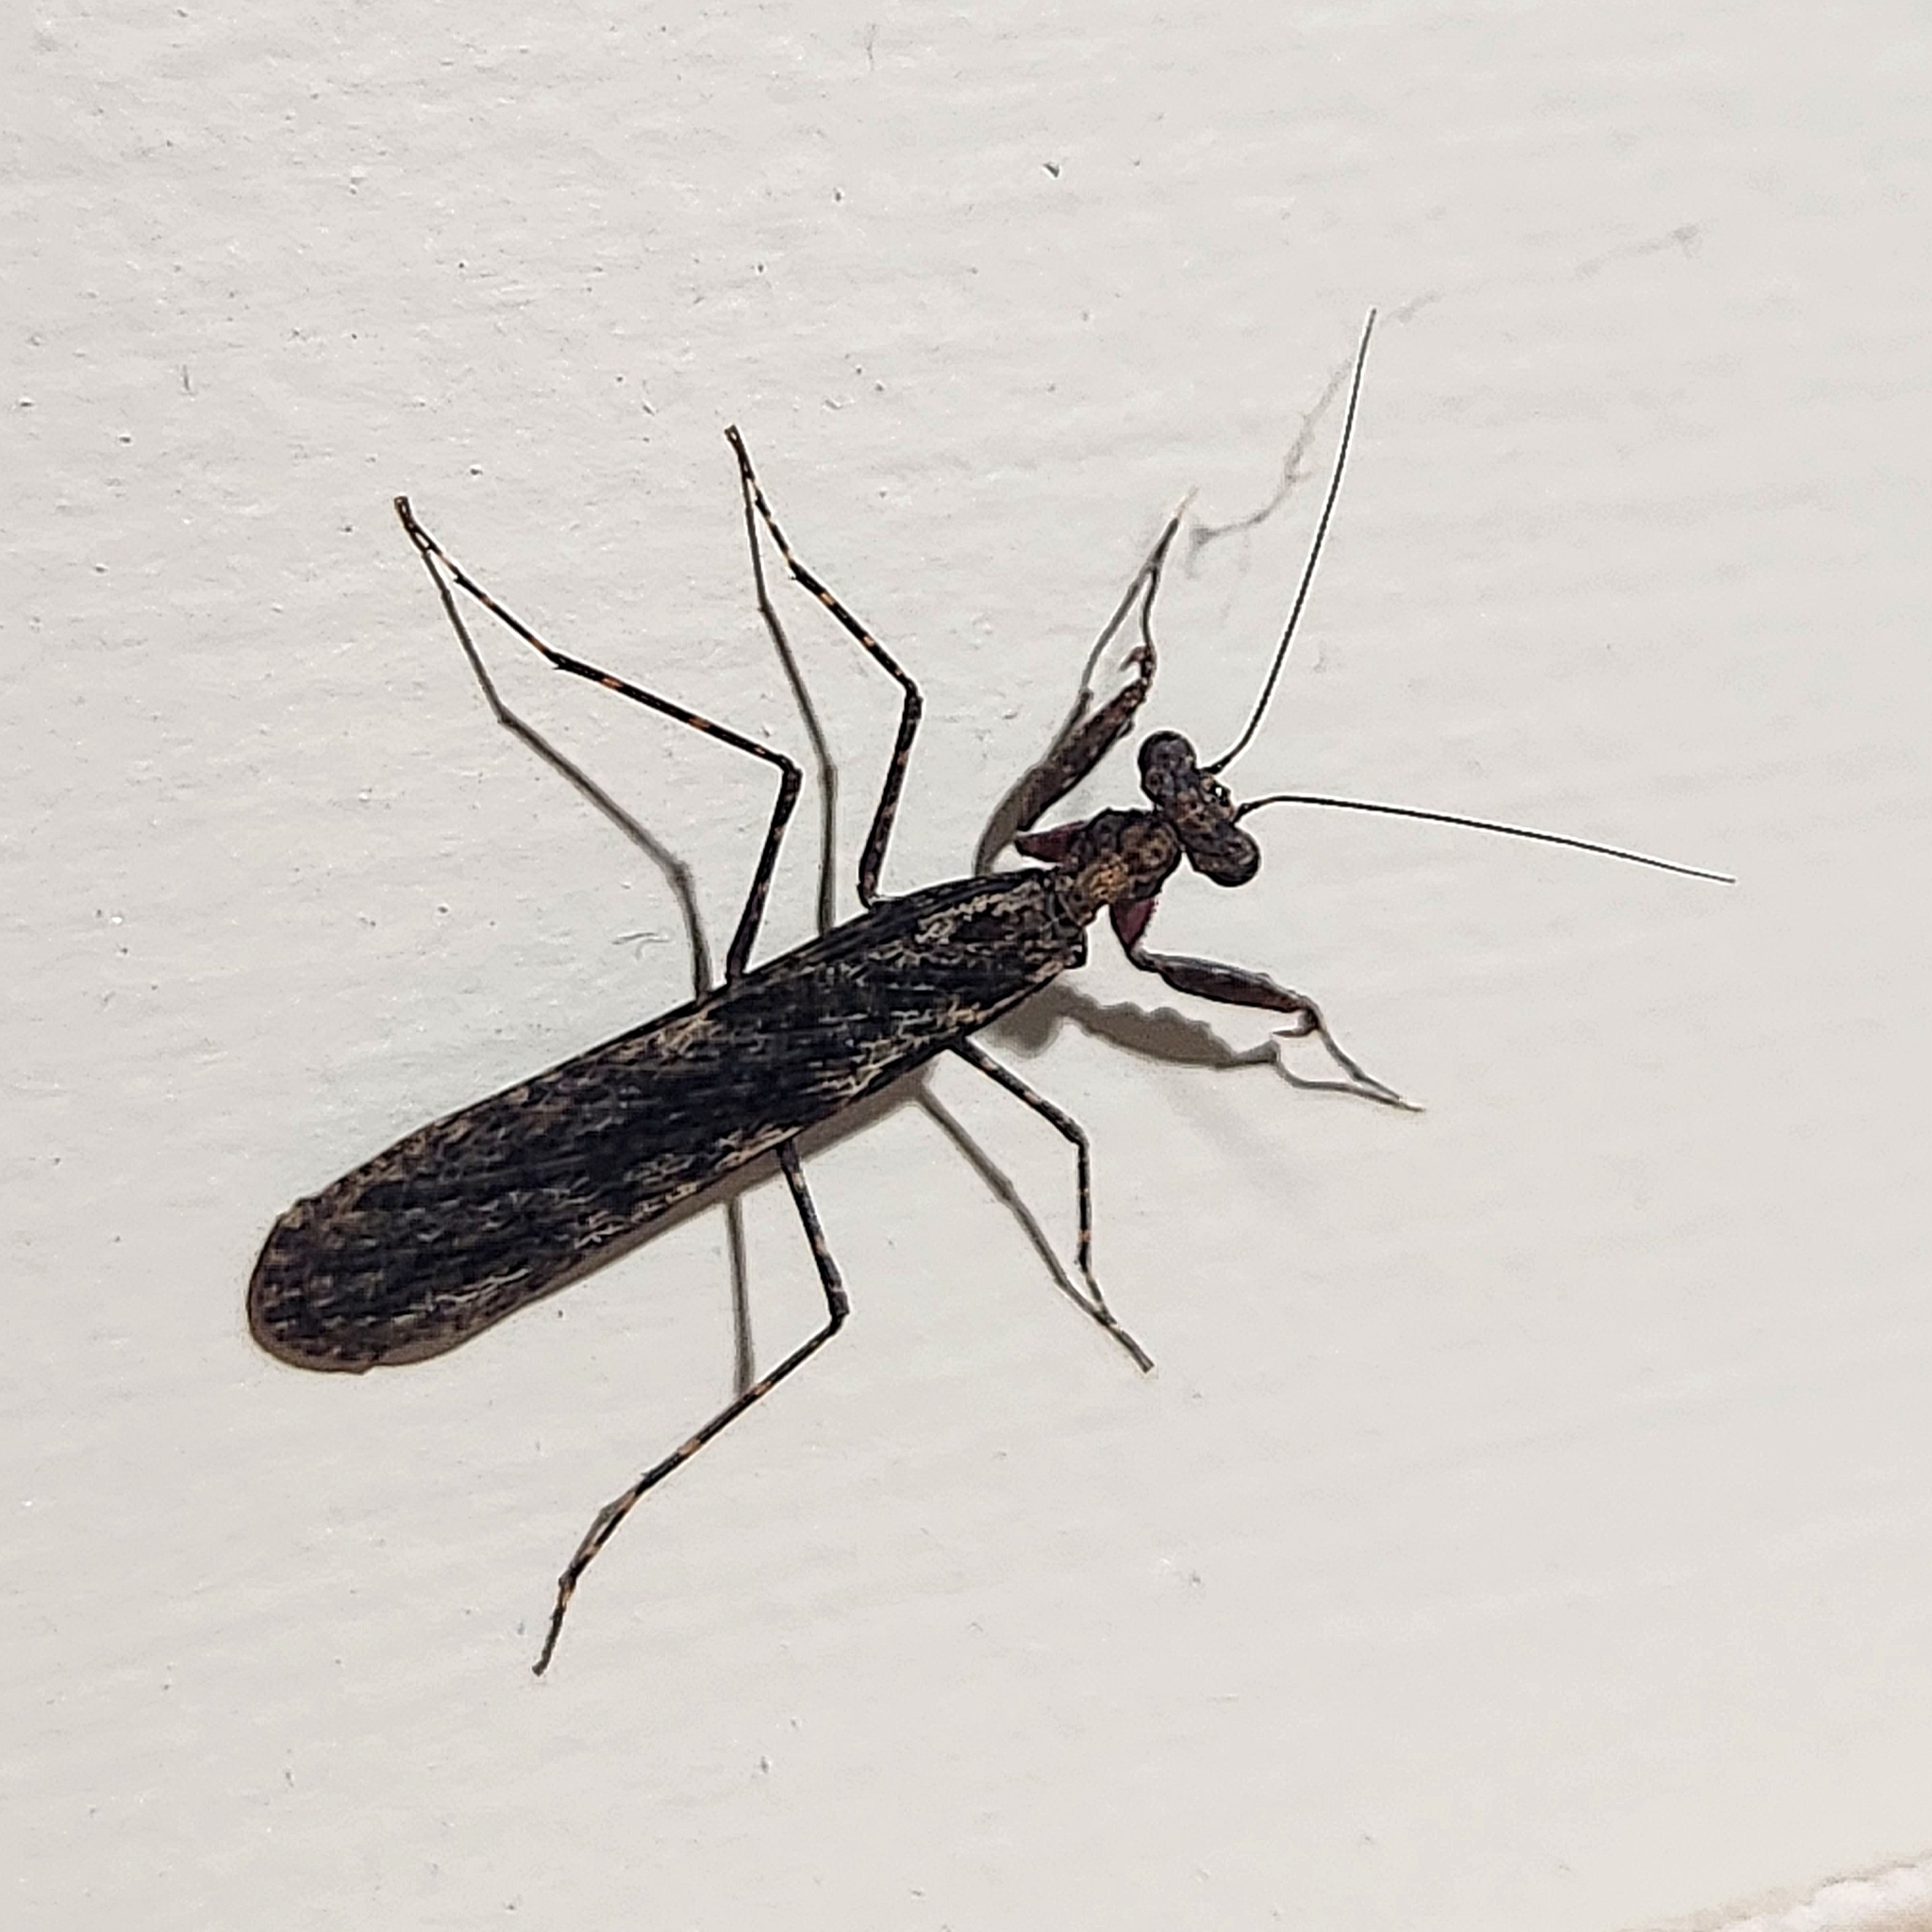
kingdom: Animalia
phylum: Arthropoda
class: Insecta
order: Mantodea
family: Nanomantidae
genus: Paraoxypilus
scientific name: Paraoxypilus verreauxii
